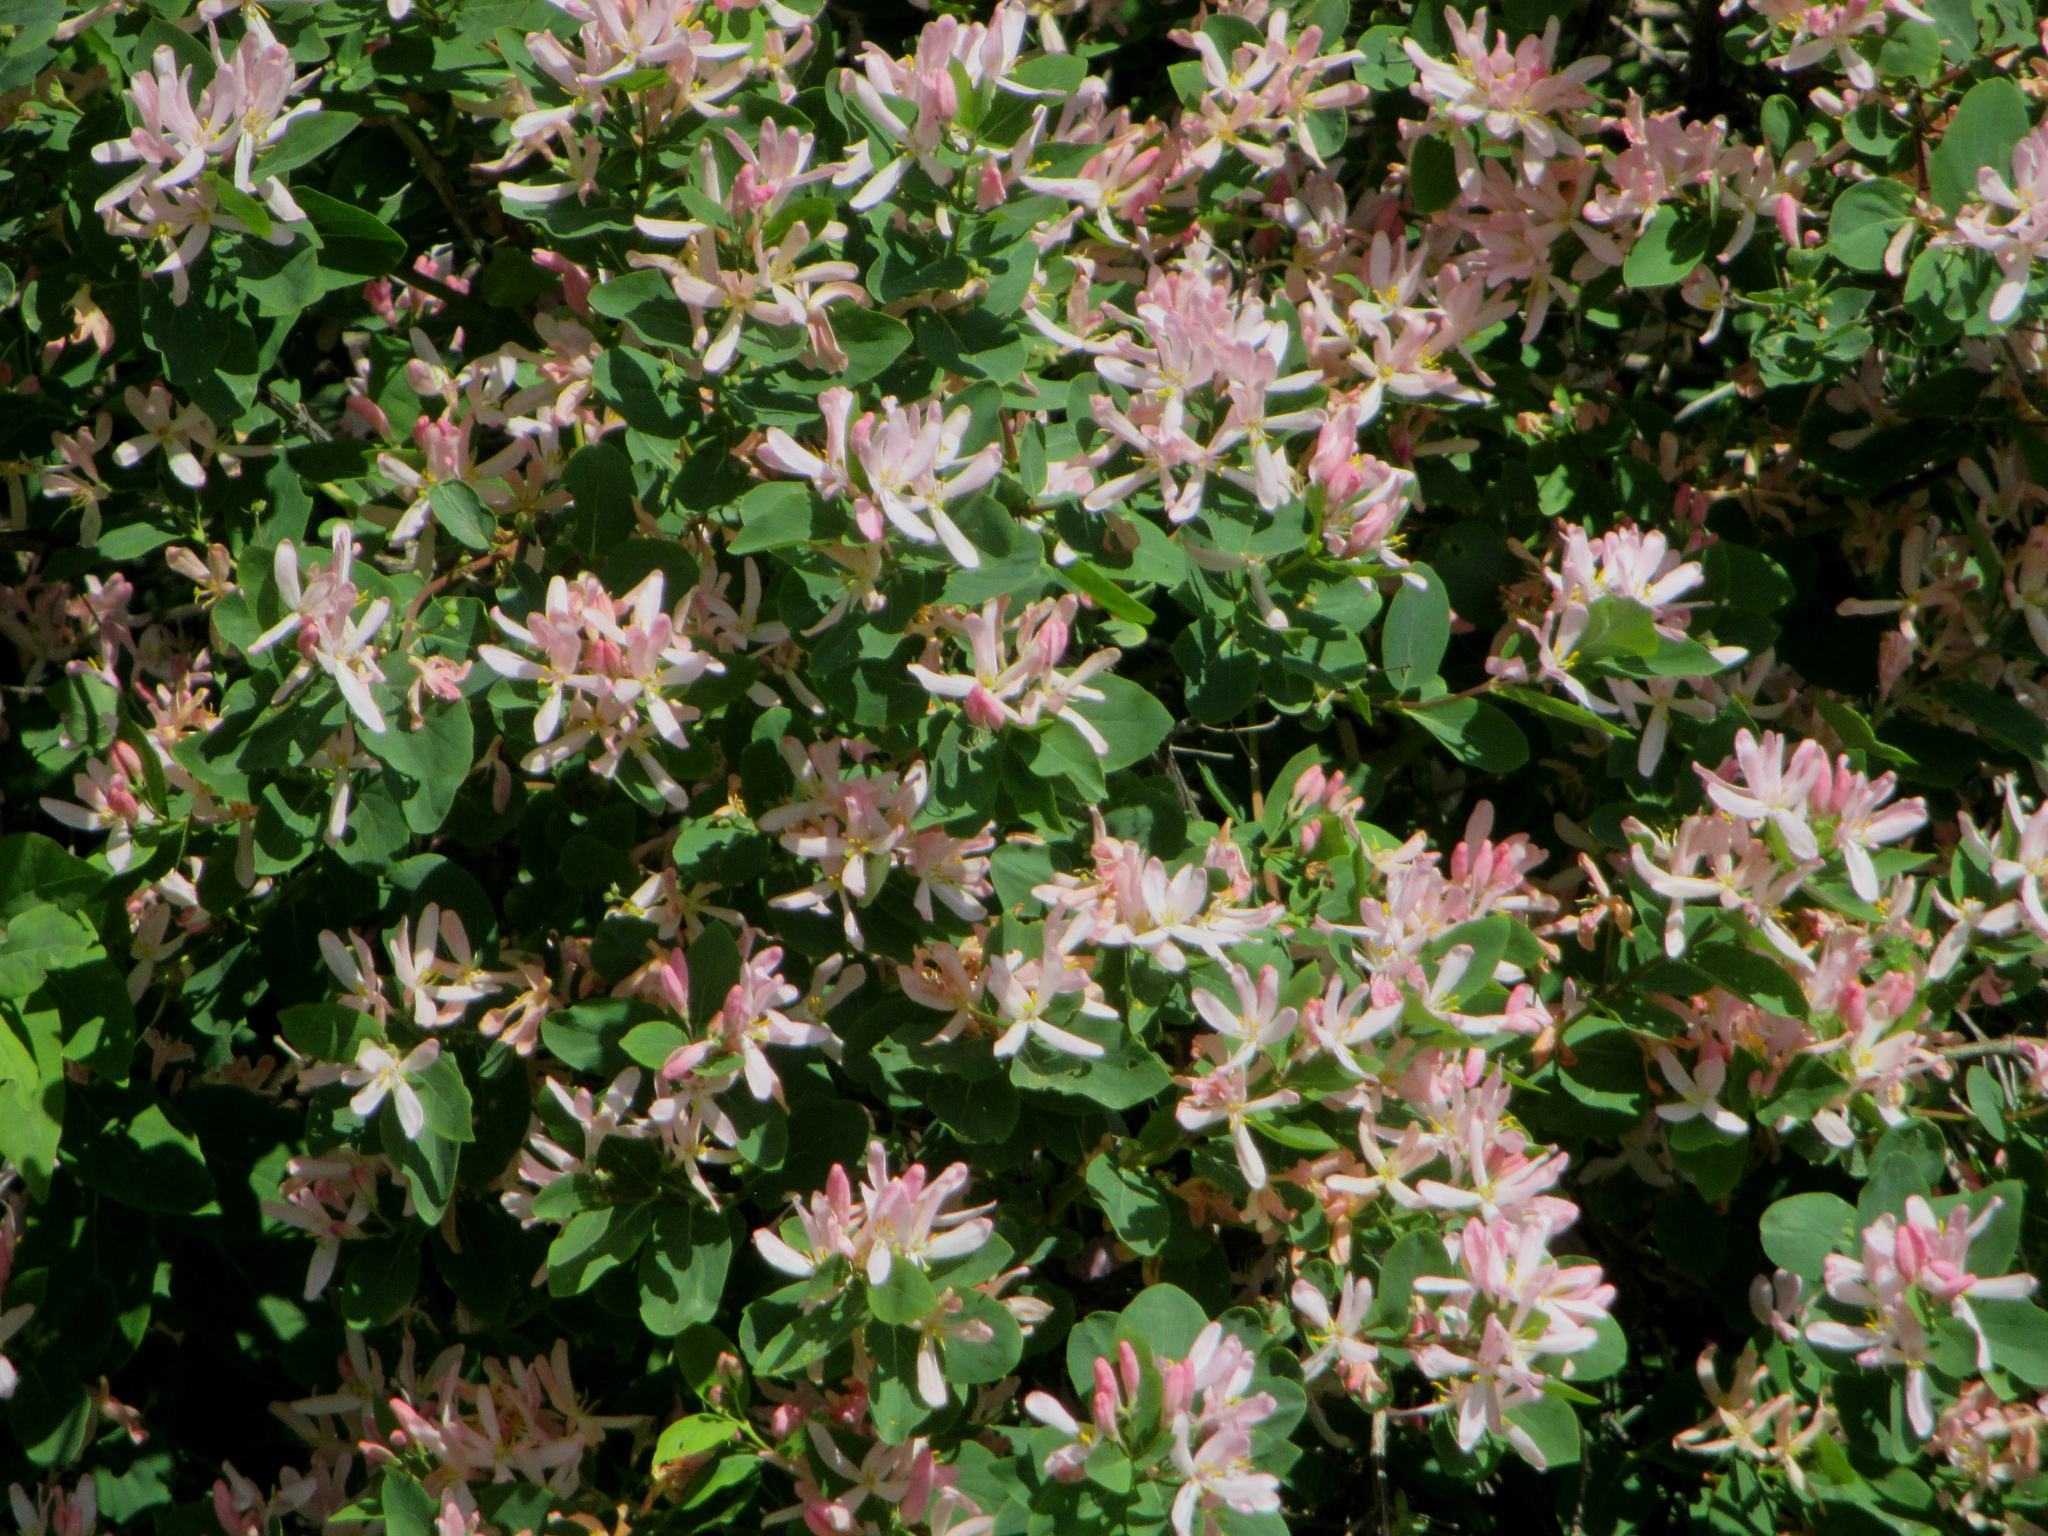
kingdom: Plantae
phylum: Tracheophyta
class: Magnoliopsida
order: Dipsacales
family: Caprifoliaceae
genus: Lonicera
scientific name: Lonicera tatarica
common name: Tatarian honeysuckle
